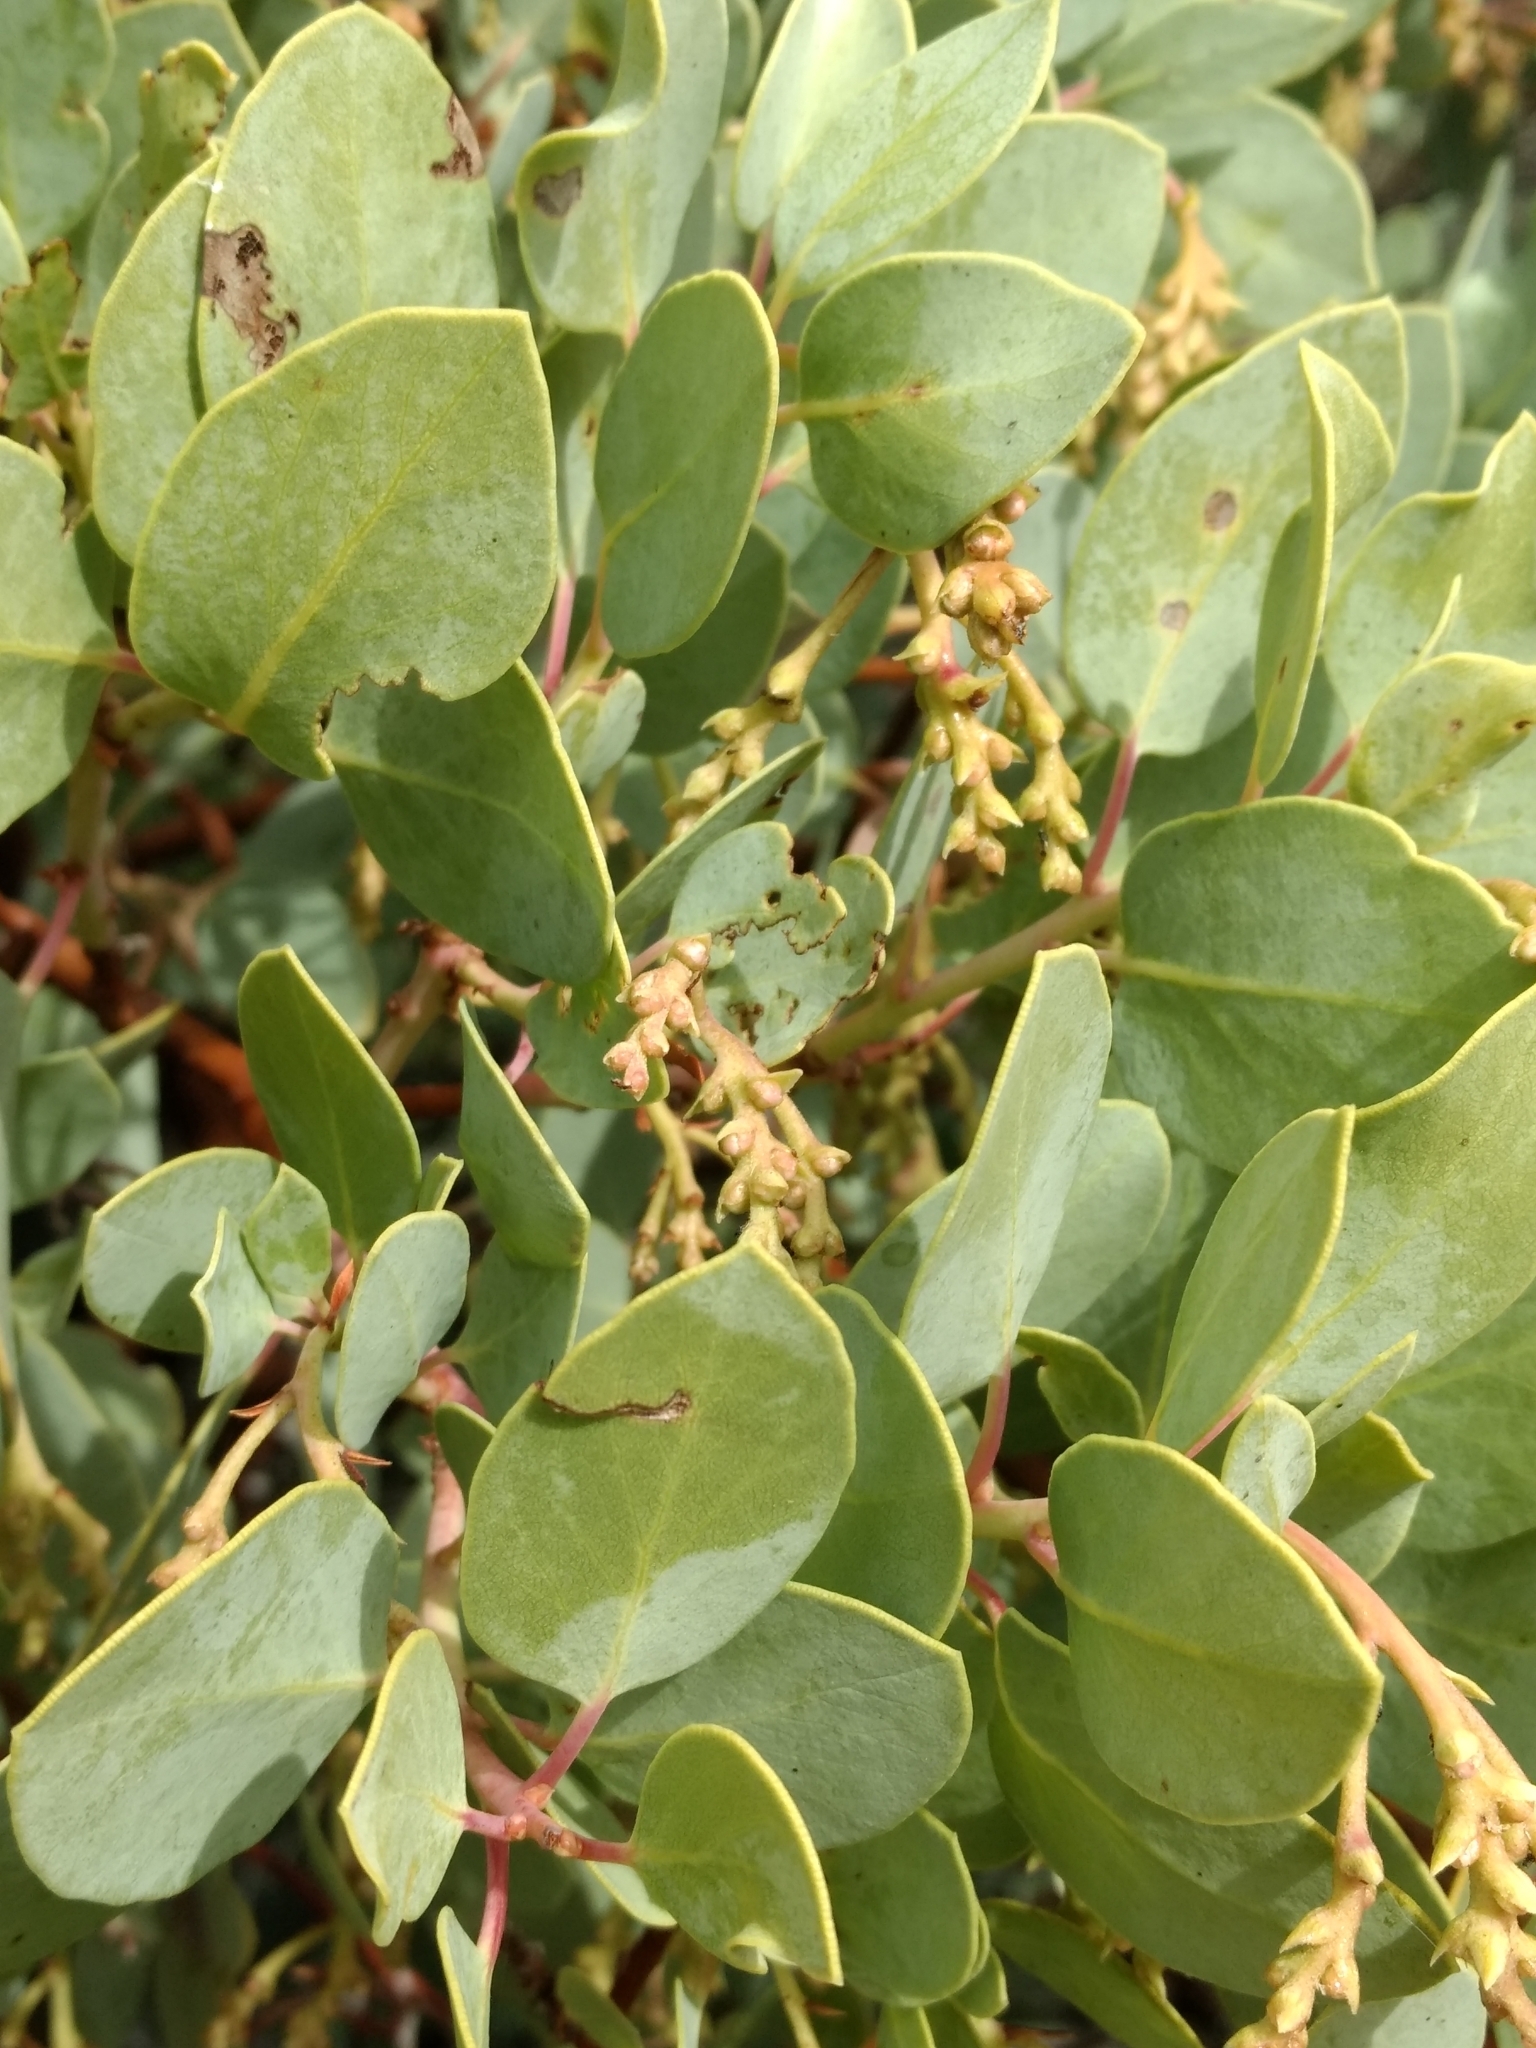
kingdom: Plantae
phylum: Tracheophyta
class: Magnoliopsida
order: Ericales
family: Ericaceae
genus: Arctostaphylos
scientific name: Arctostaphylos glauca
